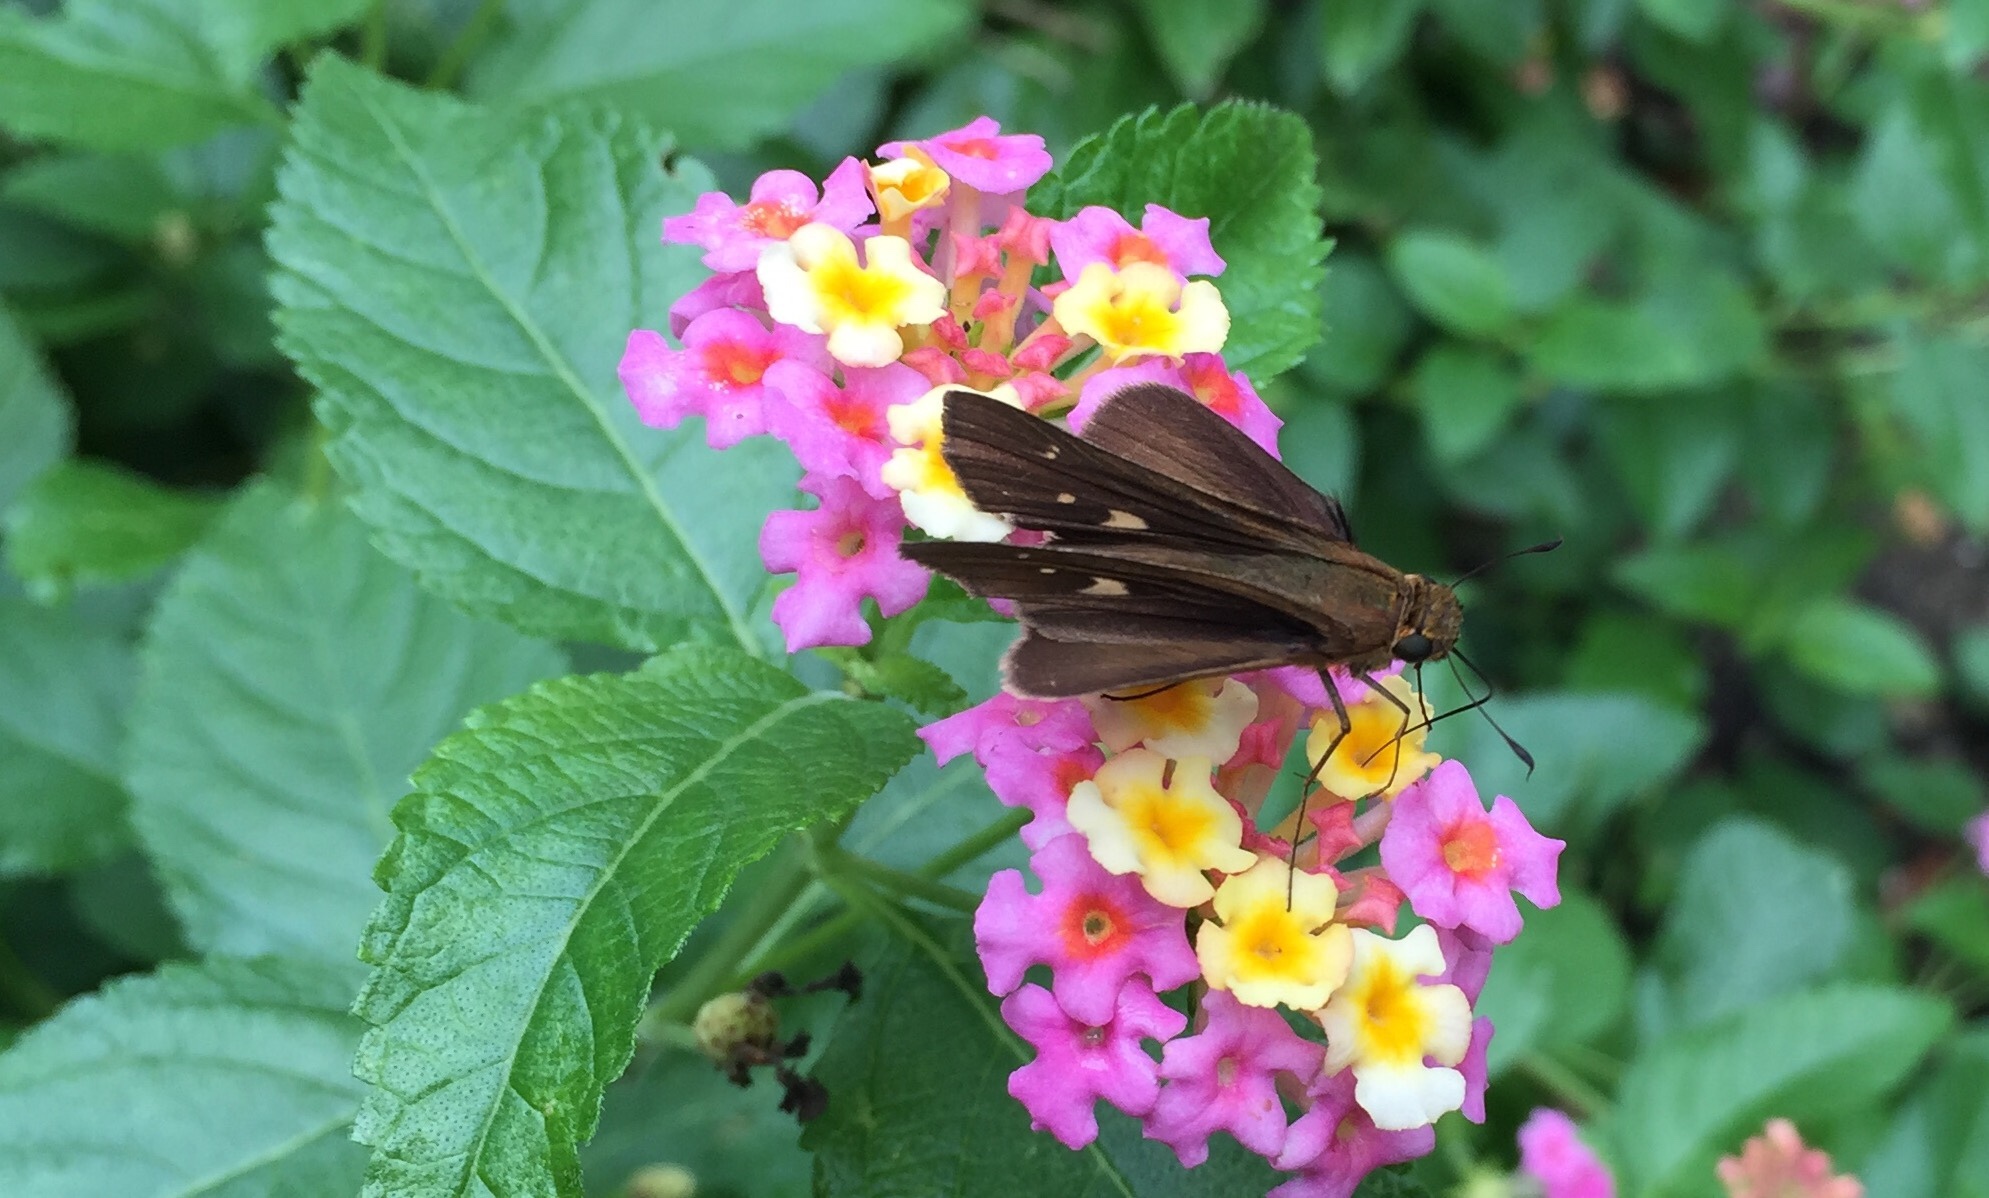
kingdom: Animalia
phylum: Arthropoda
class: Insecta
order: Lepidoptera
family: Hesperiidae
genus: Panoquina
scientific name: Panoquina ocola
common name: Ocola skipper
